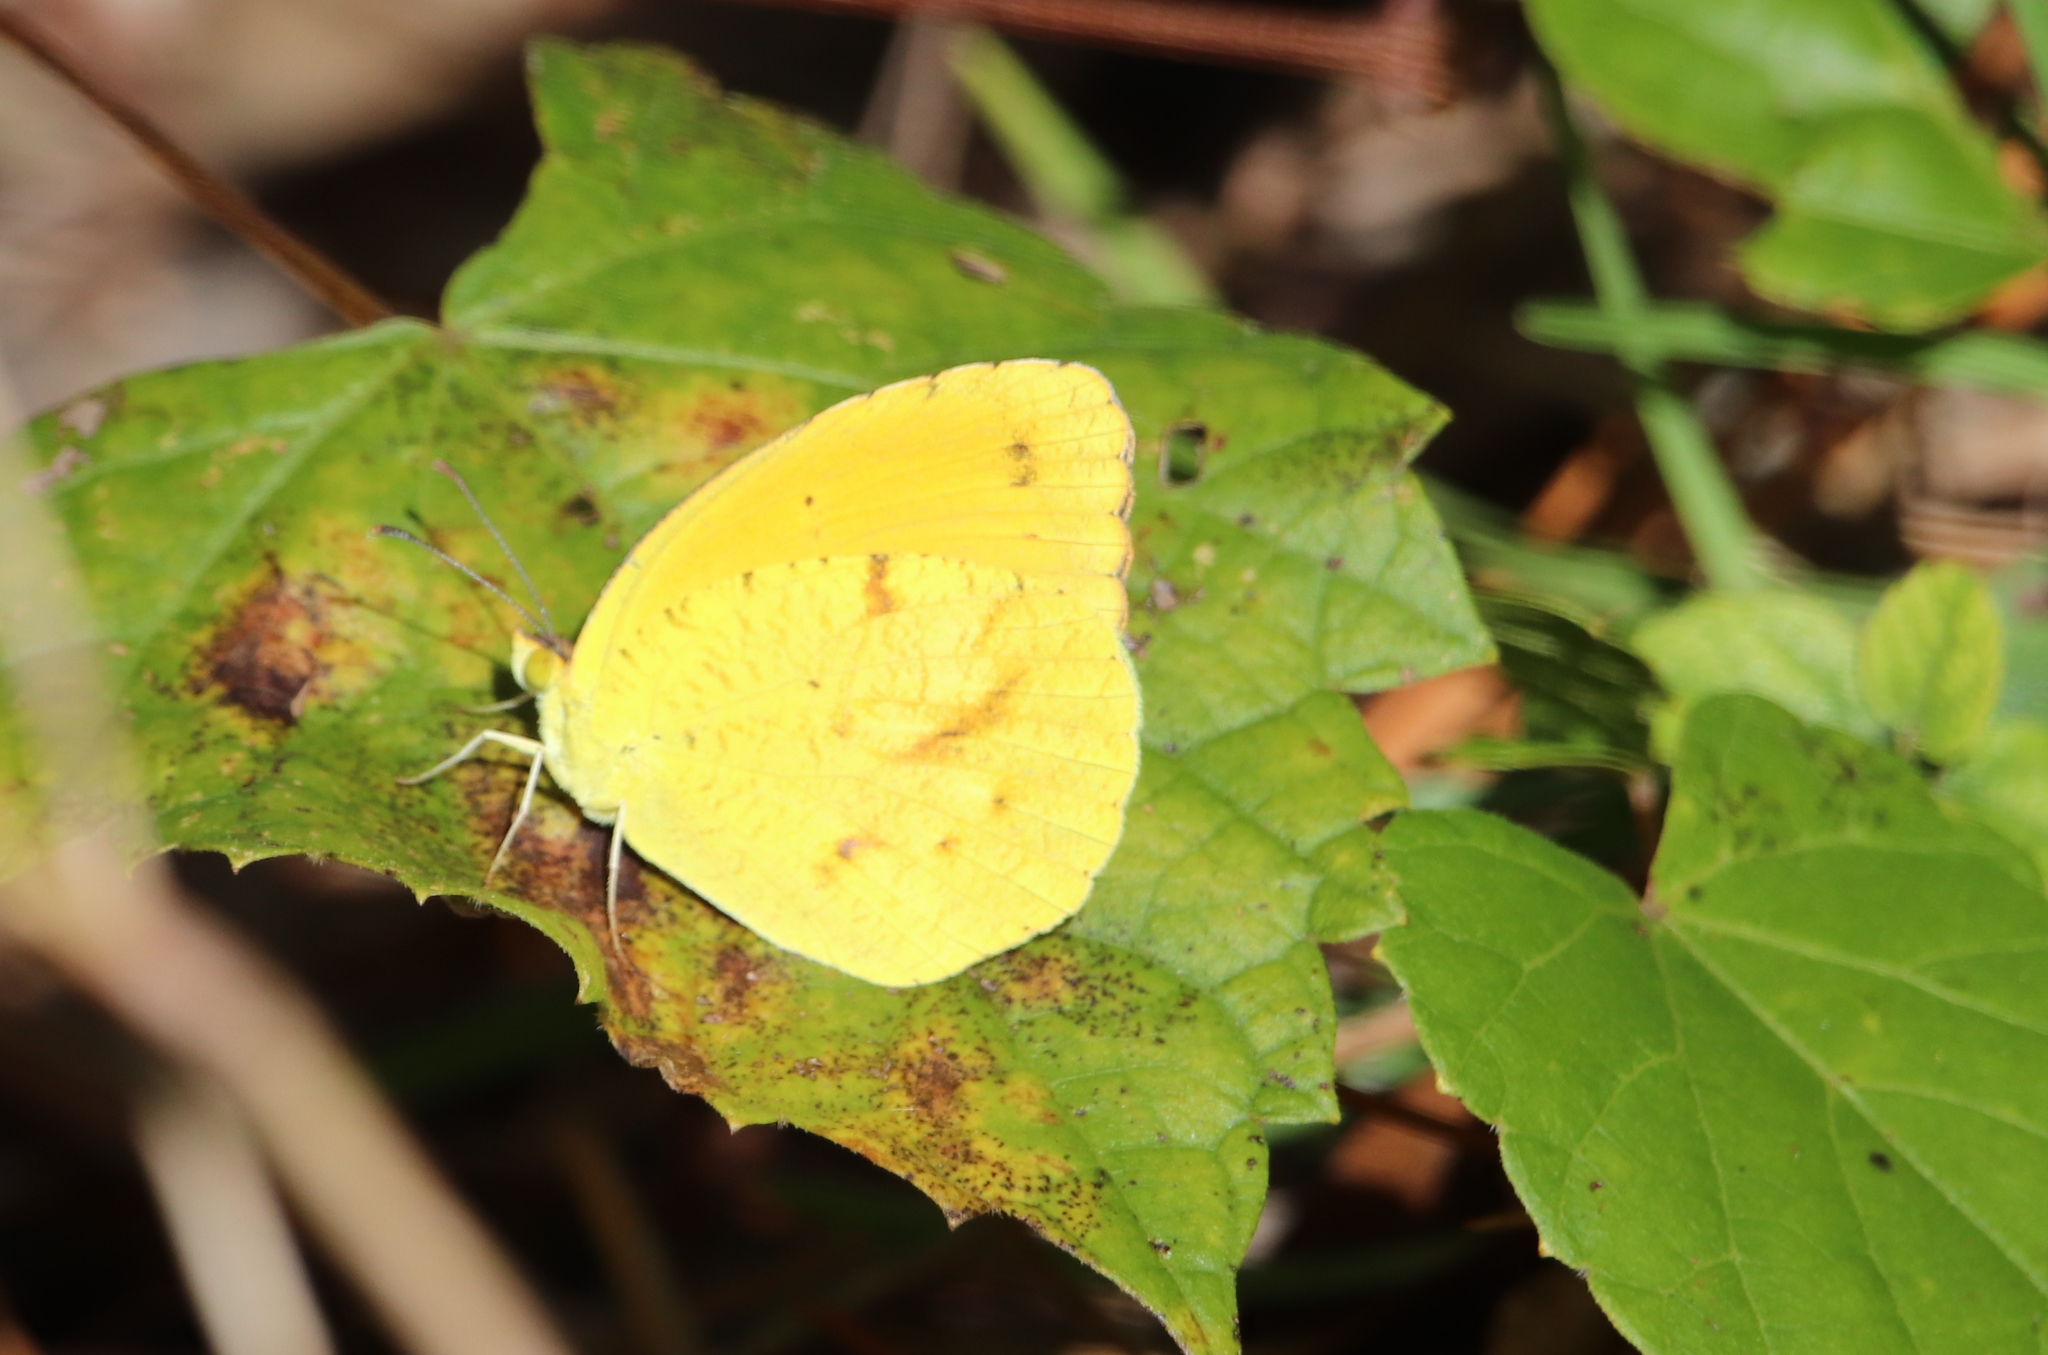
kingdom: Animalia
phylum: Arthropoda
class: Insecta
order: Lepidoptera
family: Pieridae
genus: Abaeis
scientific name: Abaeis nicippe
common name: Sleepy orange
